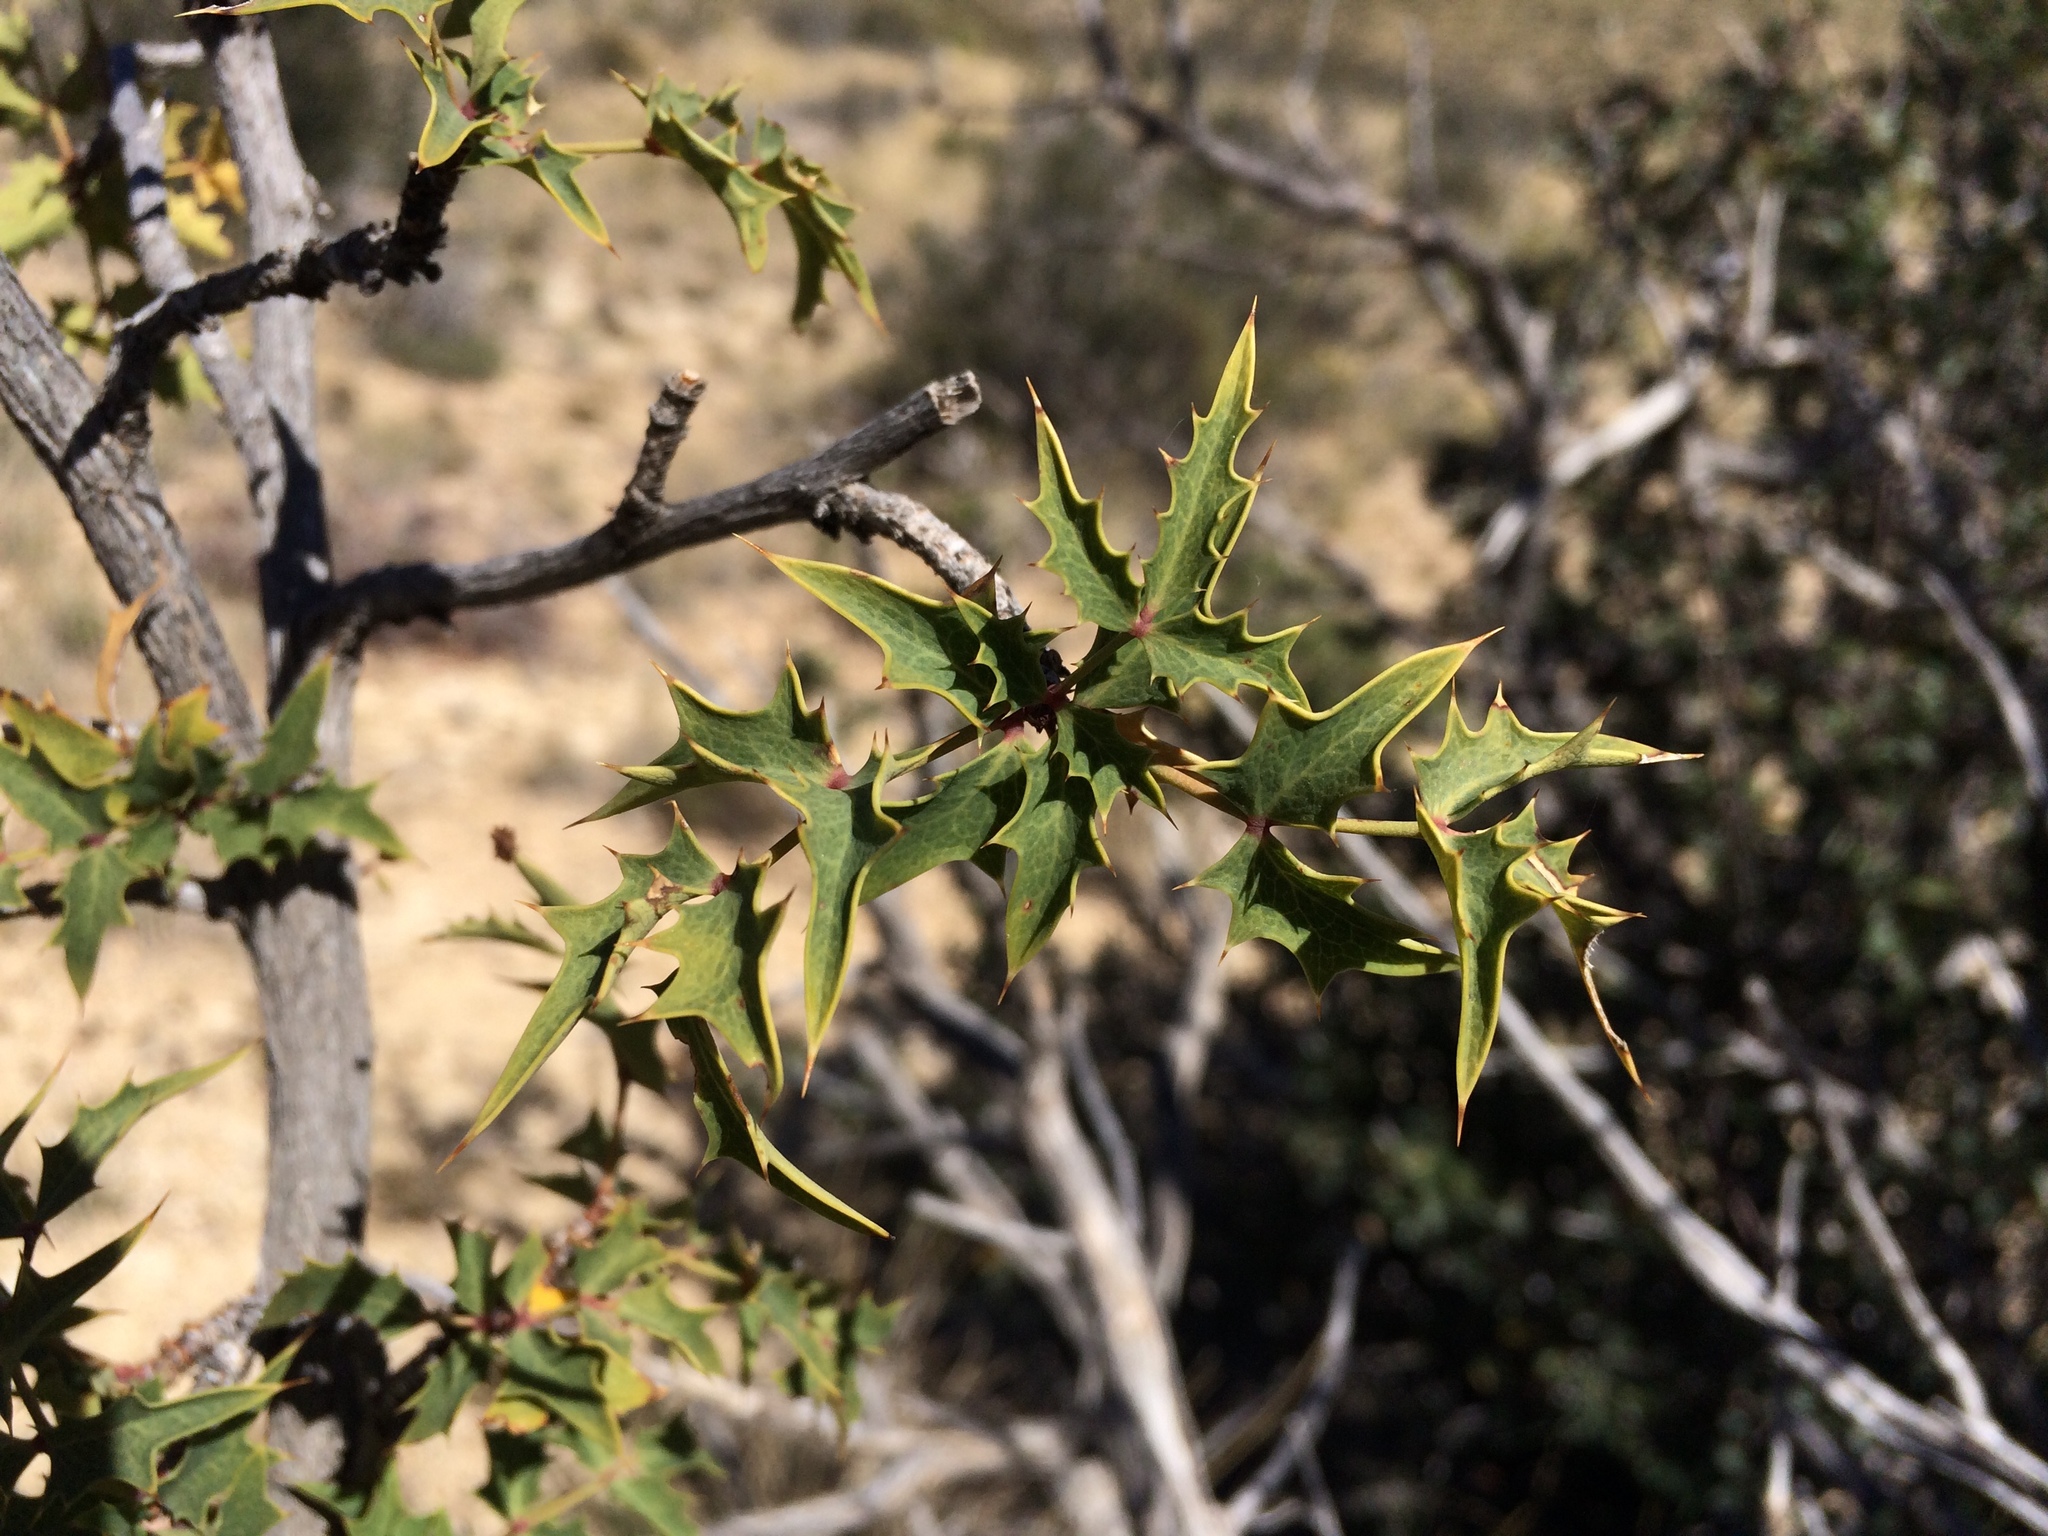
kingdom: Plantae
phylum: Tracheophyta
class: Magnoliopsida
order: Ranunculales
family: Berberidaceae
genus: Alloberberis
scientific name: Alloberberis haematocarpa
